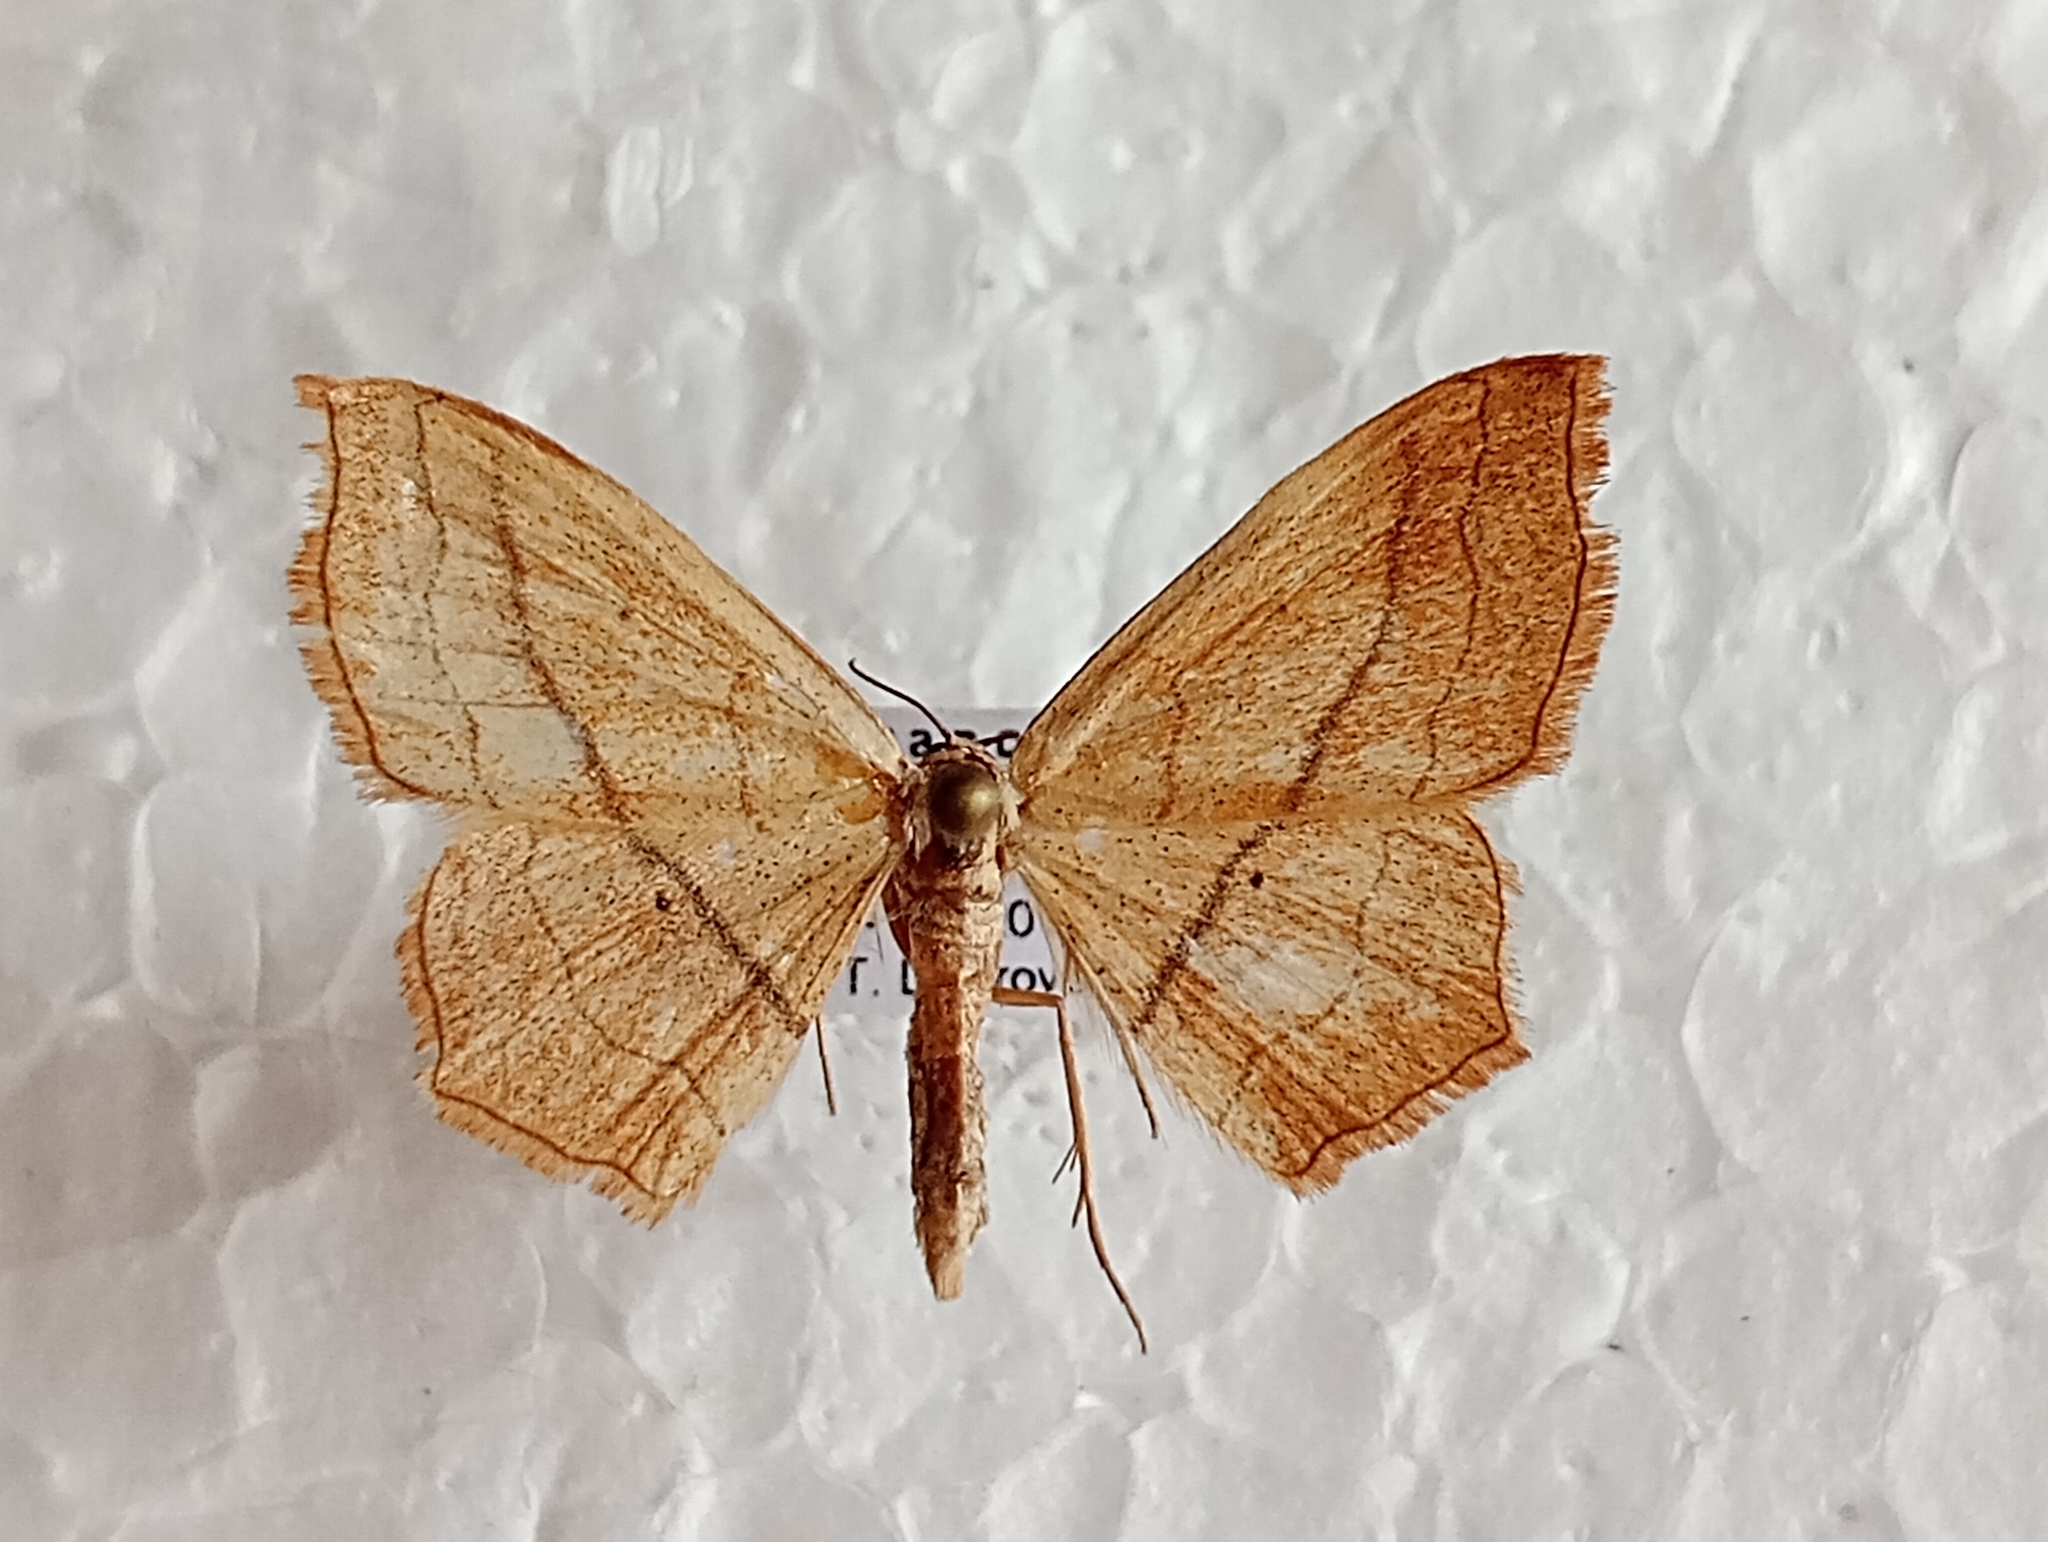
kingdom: Animalia
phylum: Arthropoda
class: Insecta
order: Lepidoptera
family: Geometridae
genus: Scopula
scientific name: Scopula imitaria
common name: Small blood-vein
